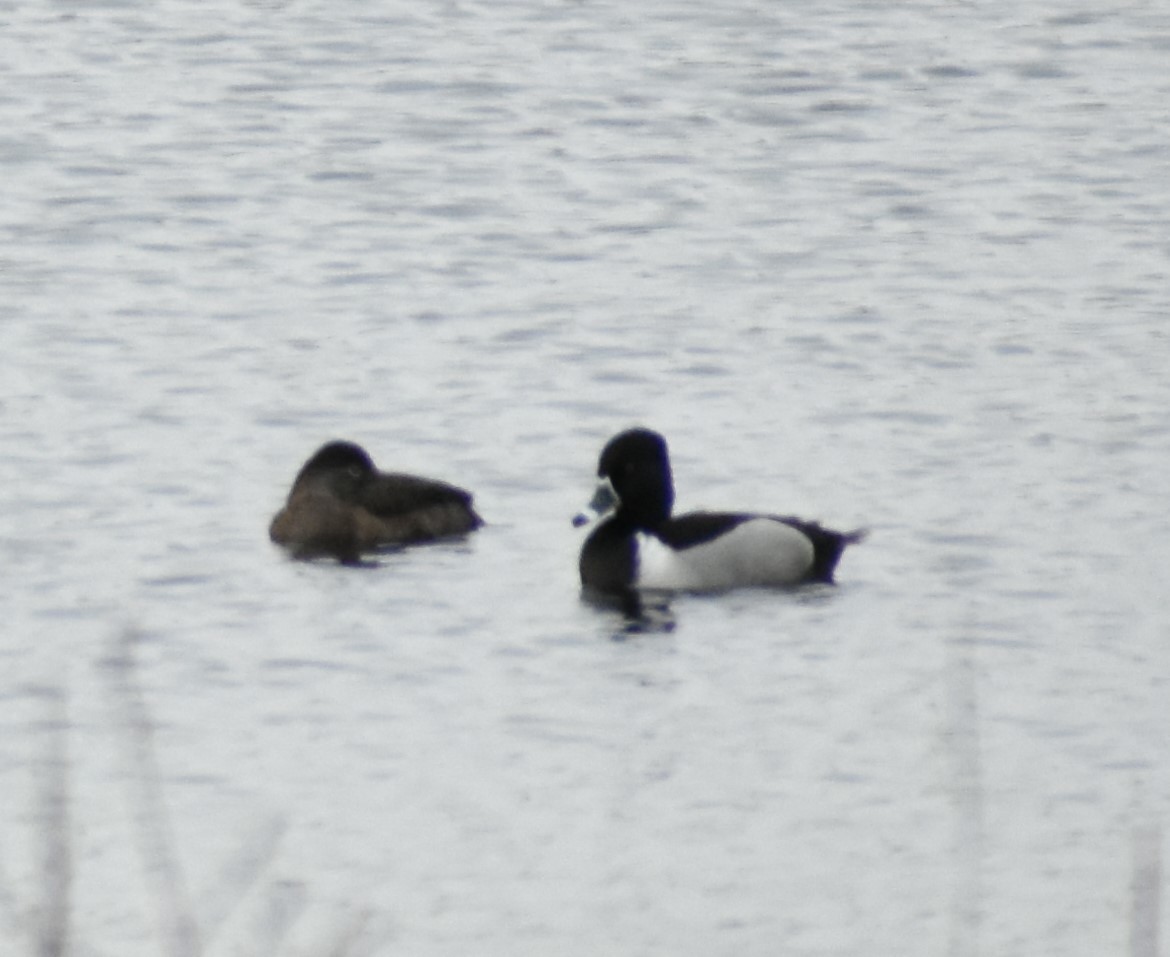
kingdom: Animalia
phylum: Chordata
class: Aves
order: Anseriformes
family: Anatidae
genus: Aythya
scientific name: Aythya collaris
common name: Ring-necked duck
